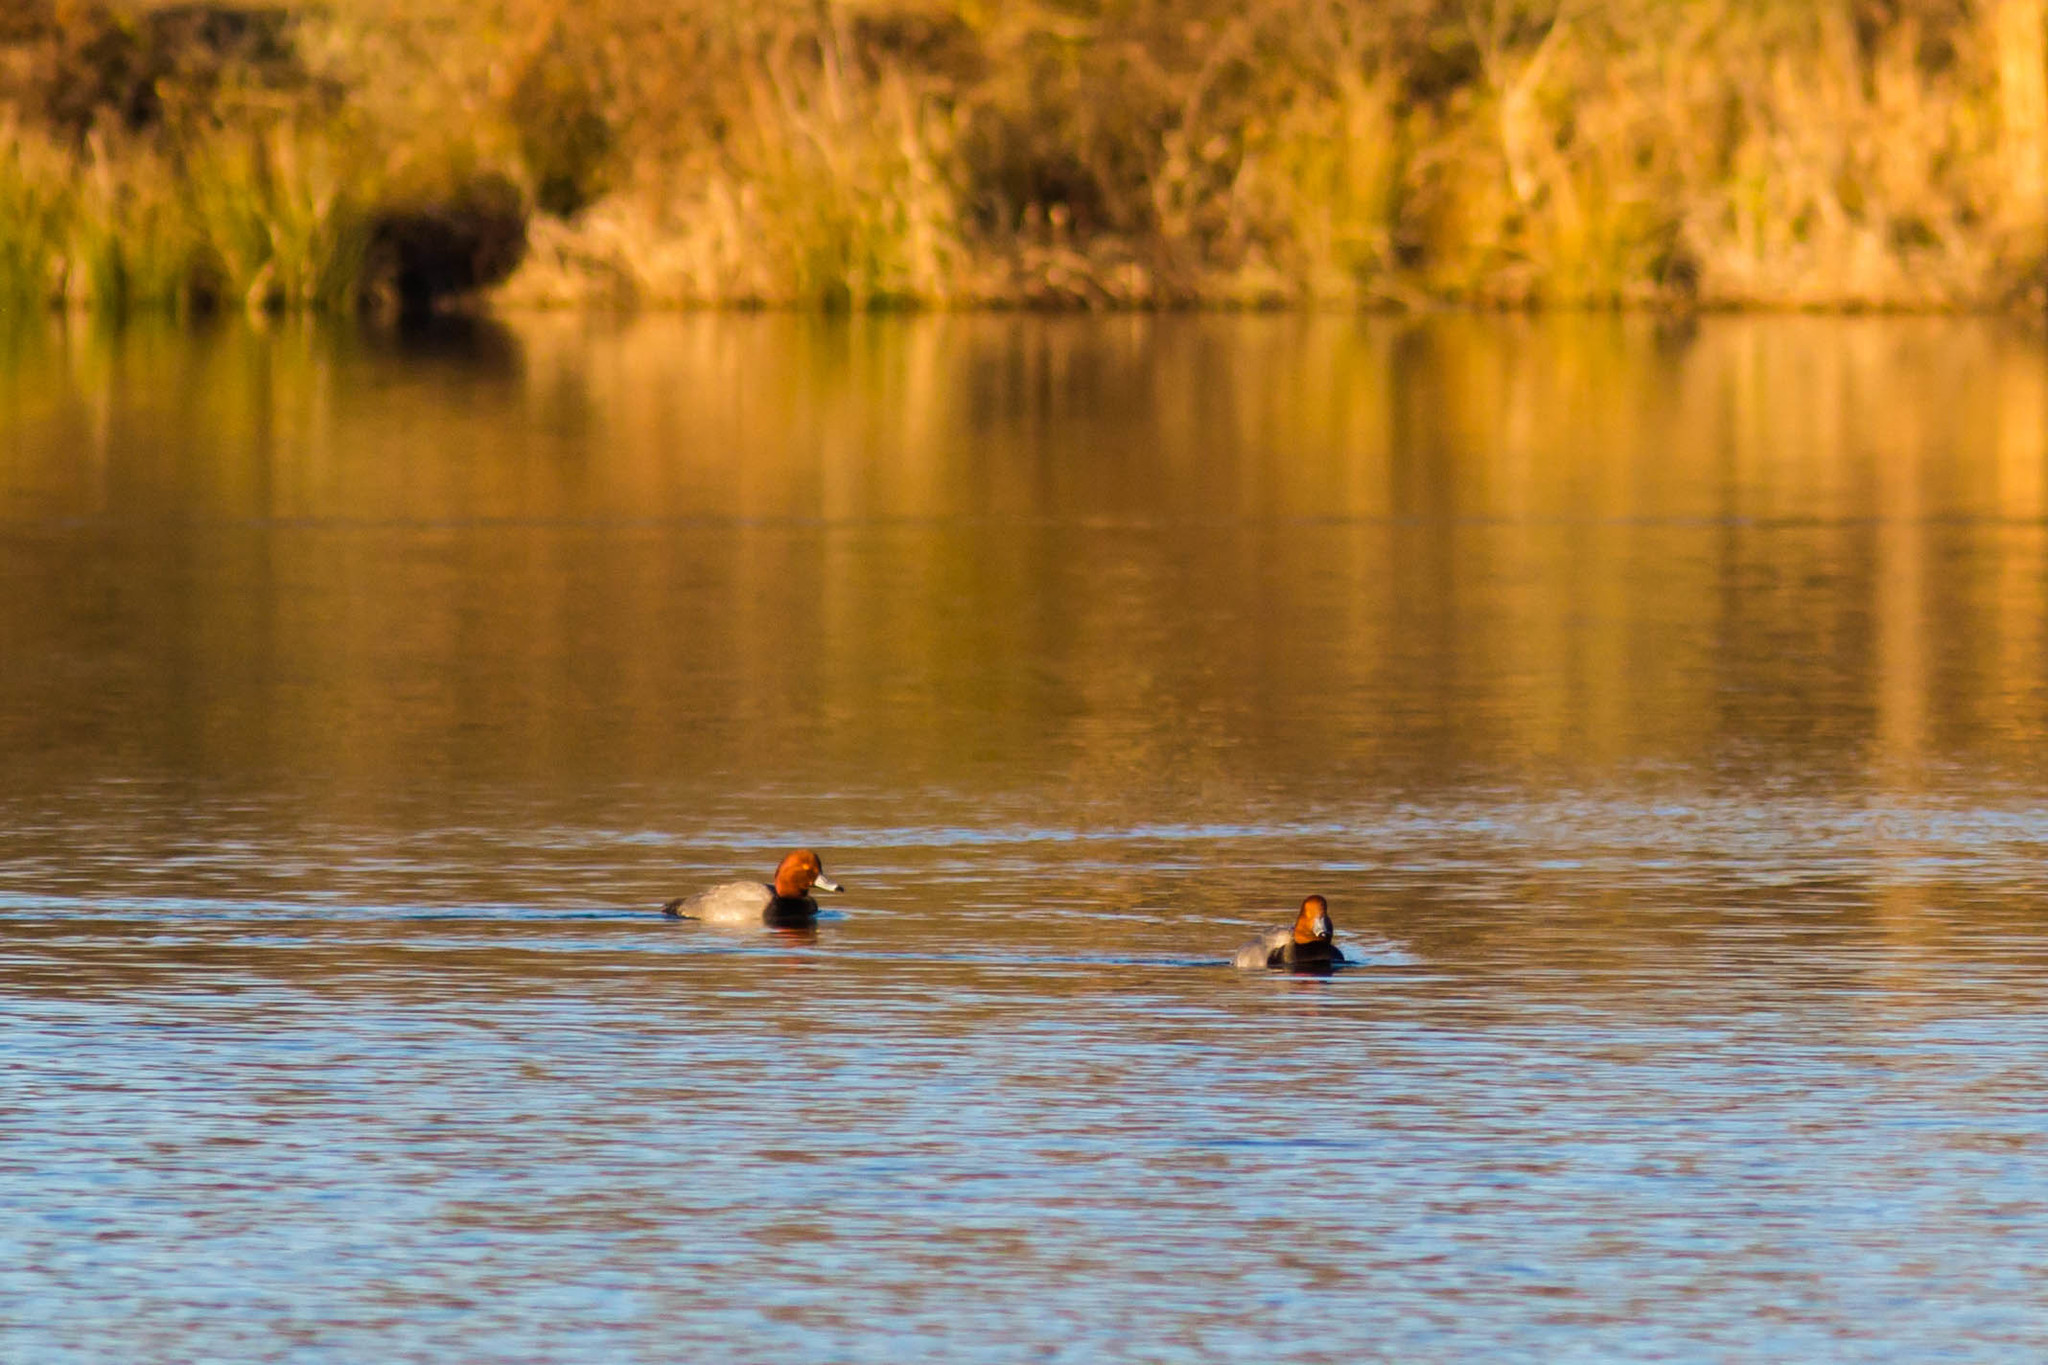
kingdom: Animalia
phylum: Chordata
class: Aves
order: Anseriformes
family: Anatidae
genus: Aythya
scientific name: Aythya americana
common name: Redhead
